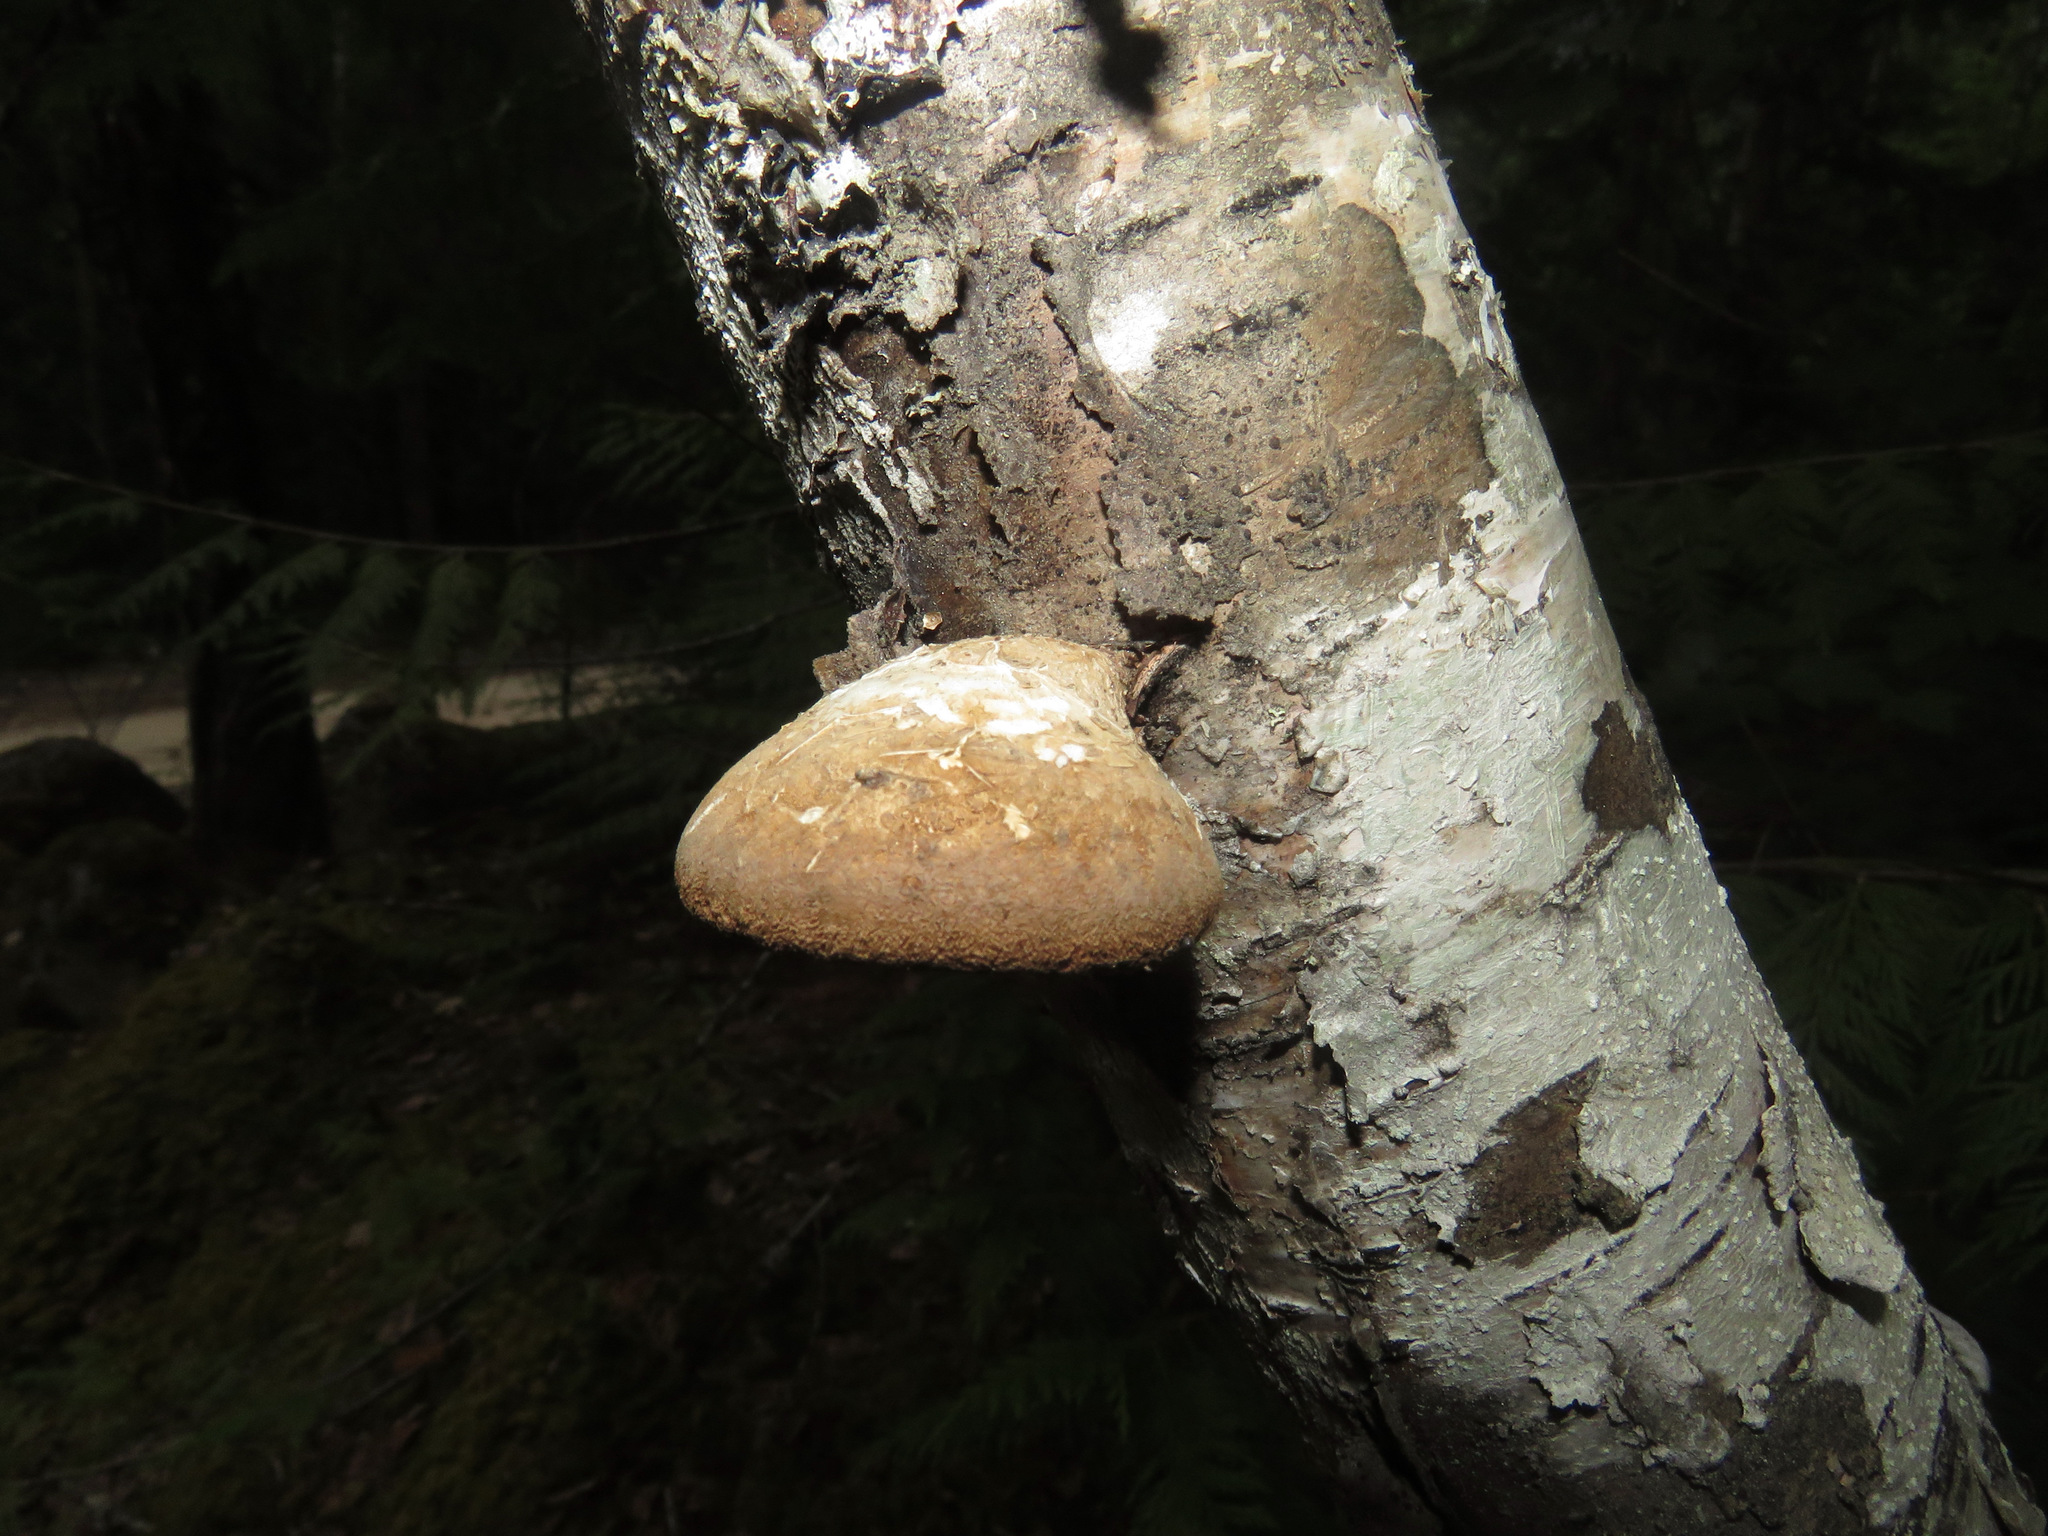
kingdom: Fungi
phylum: Basidiomycota
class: Agaricomycetes
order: Polyporales
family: Fomitopsidaceae
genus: Fomitopsis
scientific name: Fomitopsis betulina
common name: Birch polypore
